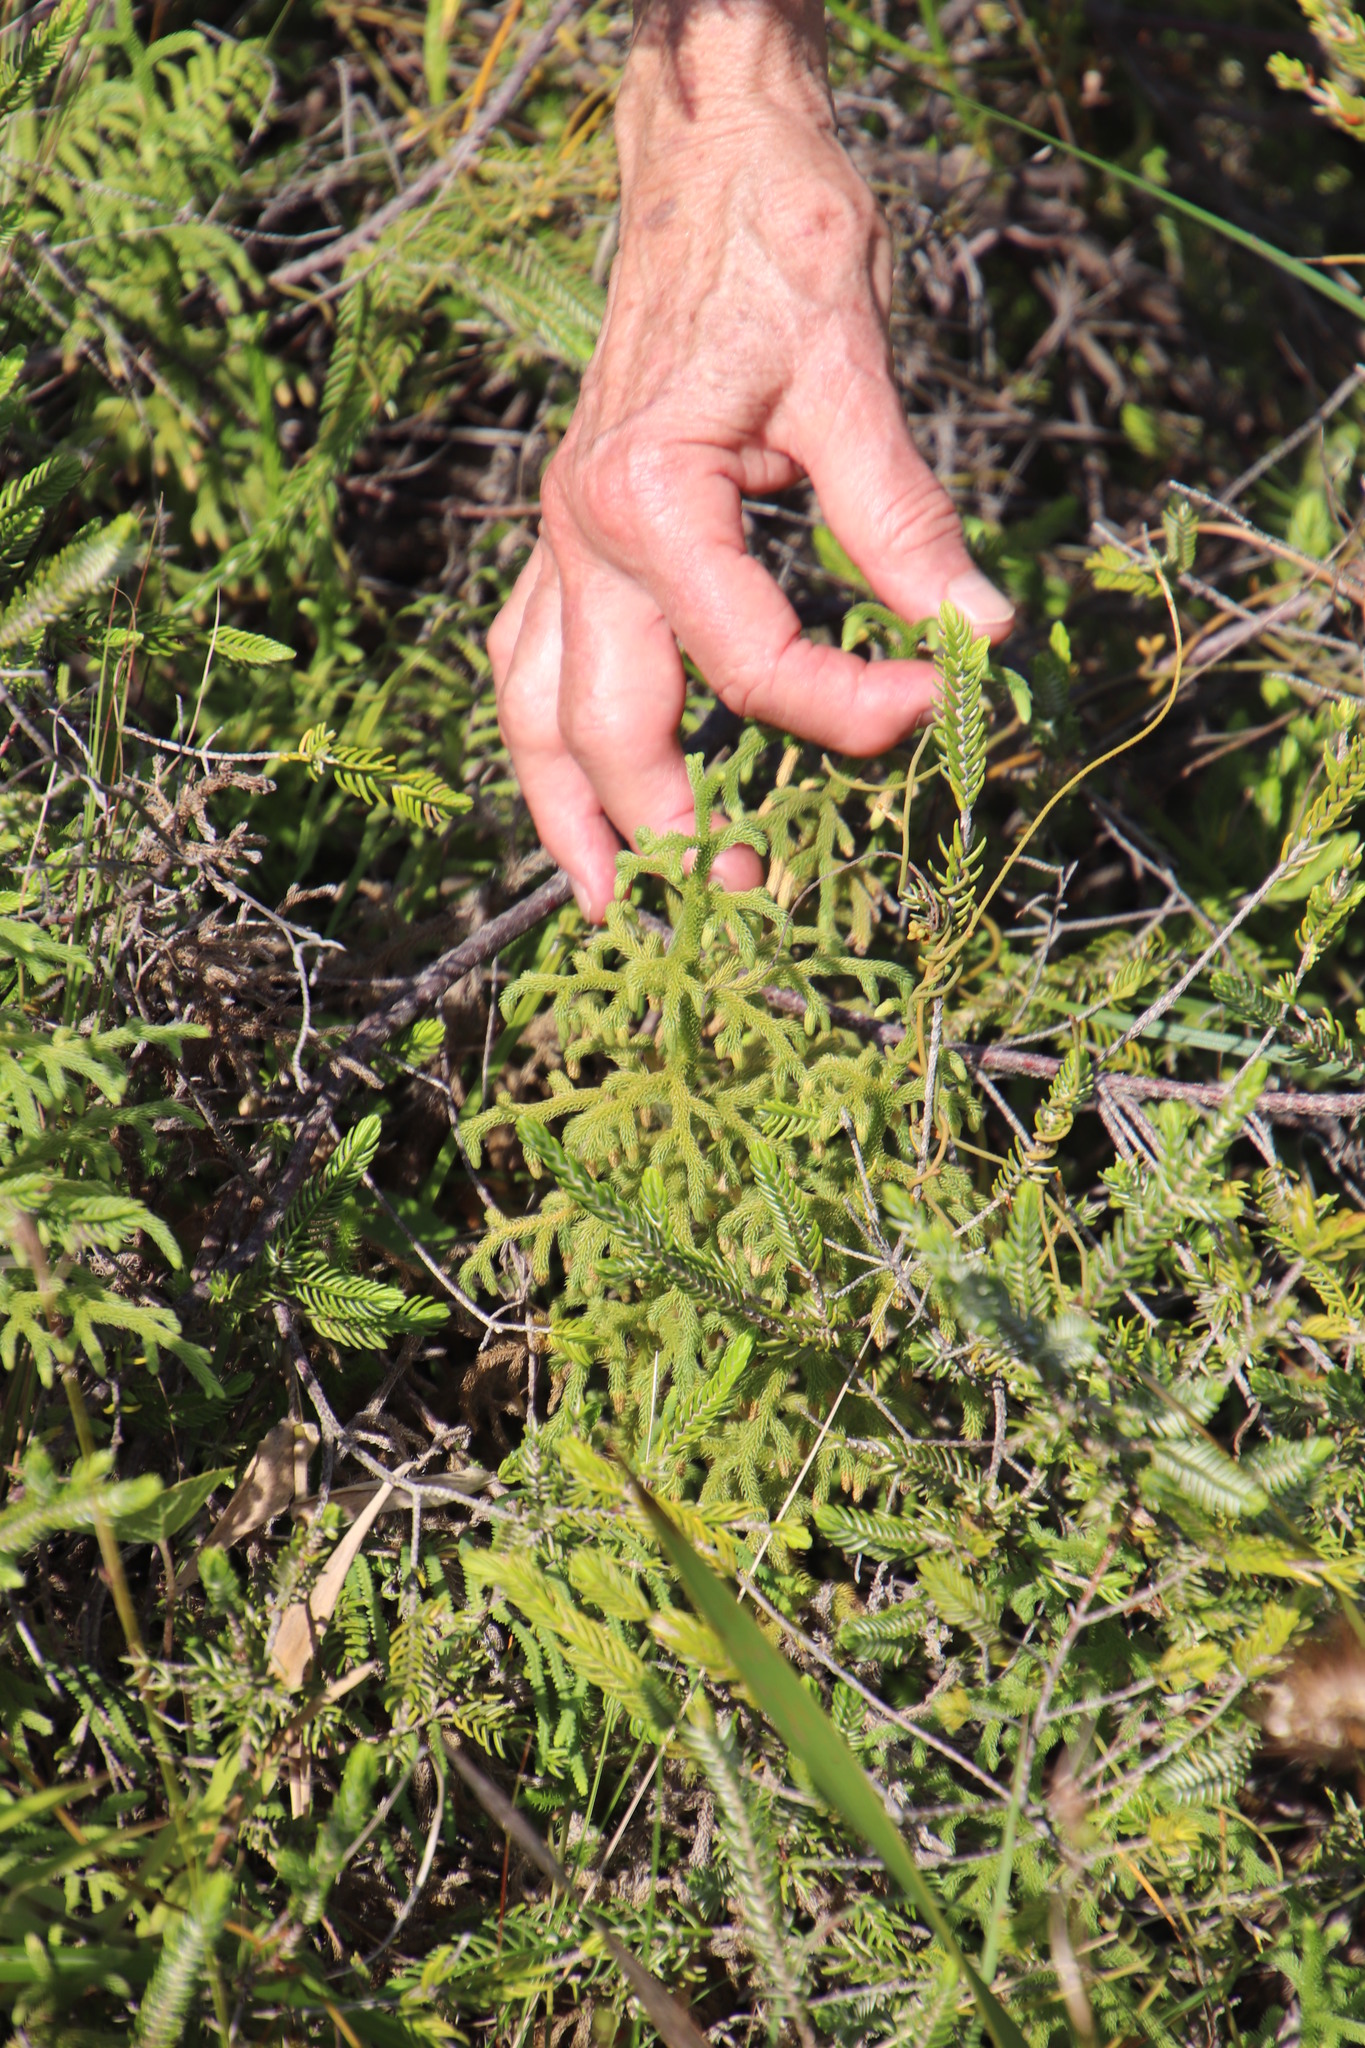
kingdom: Plantae
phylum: Tracheophyta
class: Lycopodiopsida
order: Lycopodiales
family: Lycopodiaceae
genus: Palhinhaea
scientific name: Palhinhaea cernua
